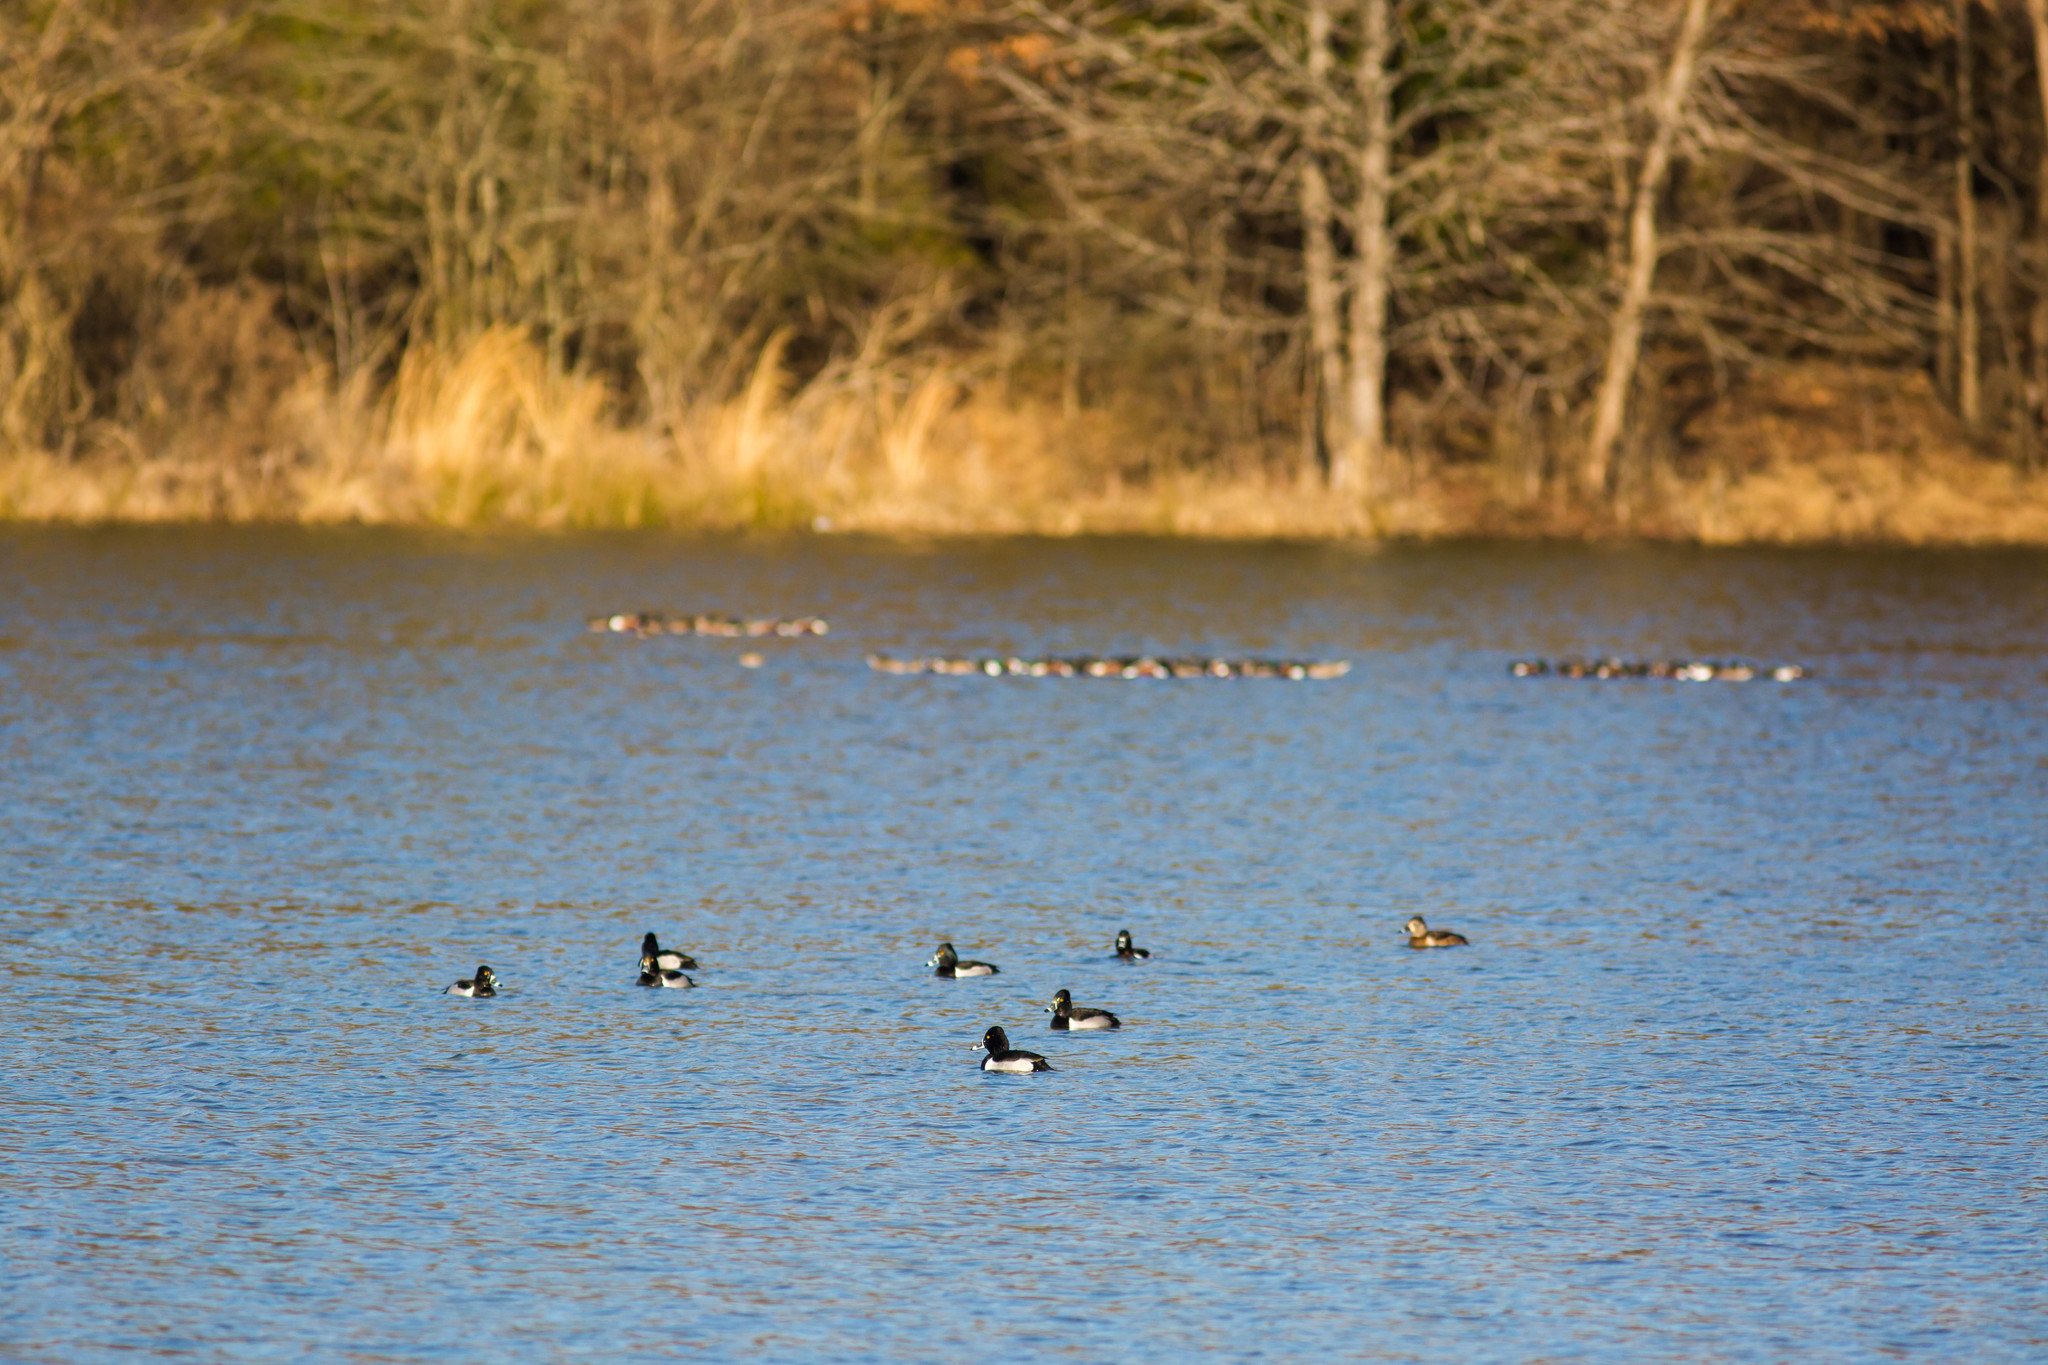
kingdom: Animalia
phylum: Chordata
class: Aves
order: Anseriformes
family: Anatidae
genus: Aythya
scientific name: Aythya collaris
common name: Ring-necked duck
